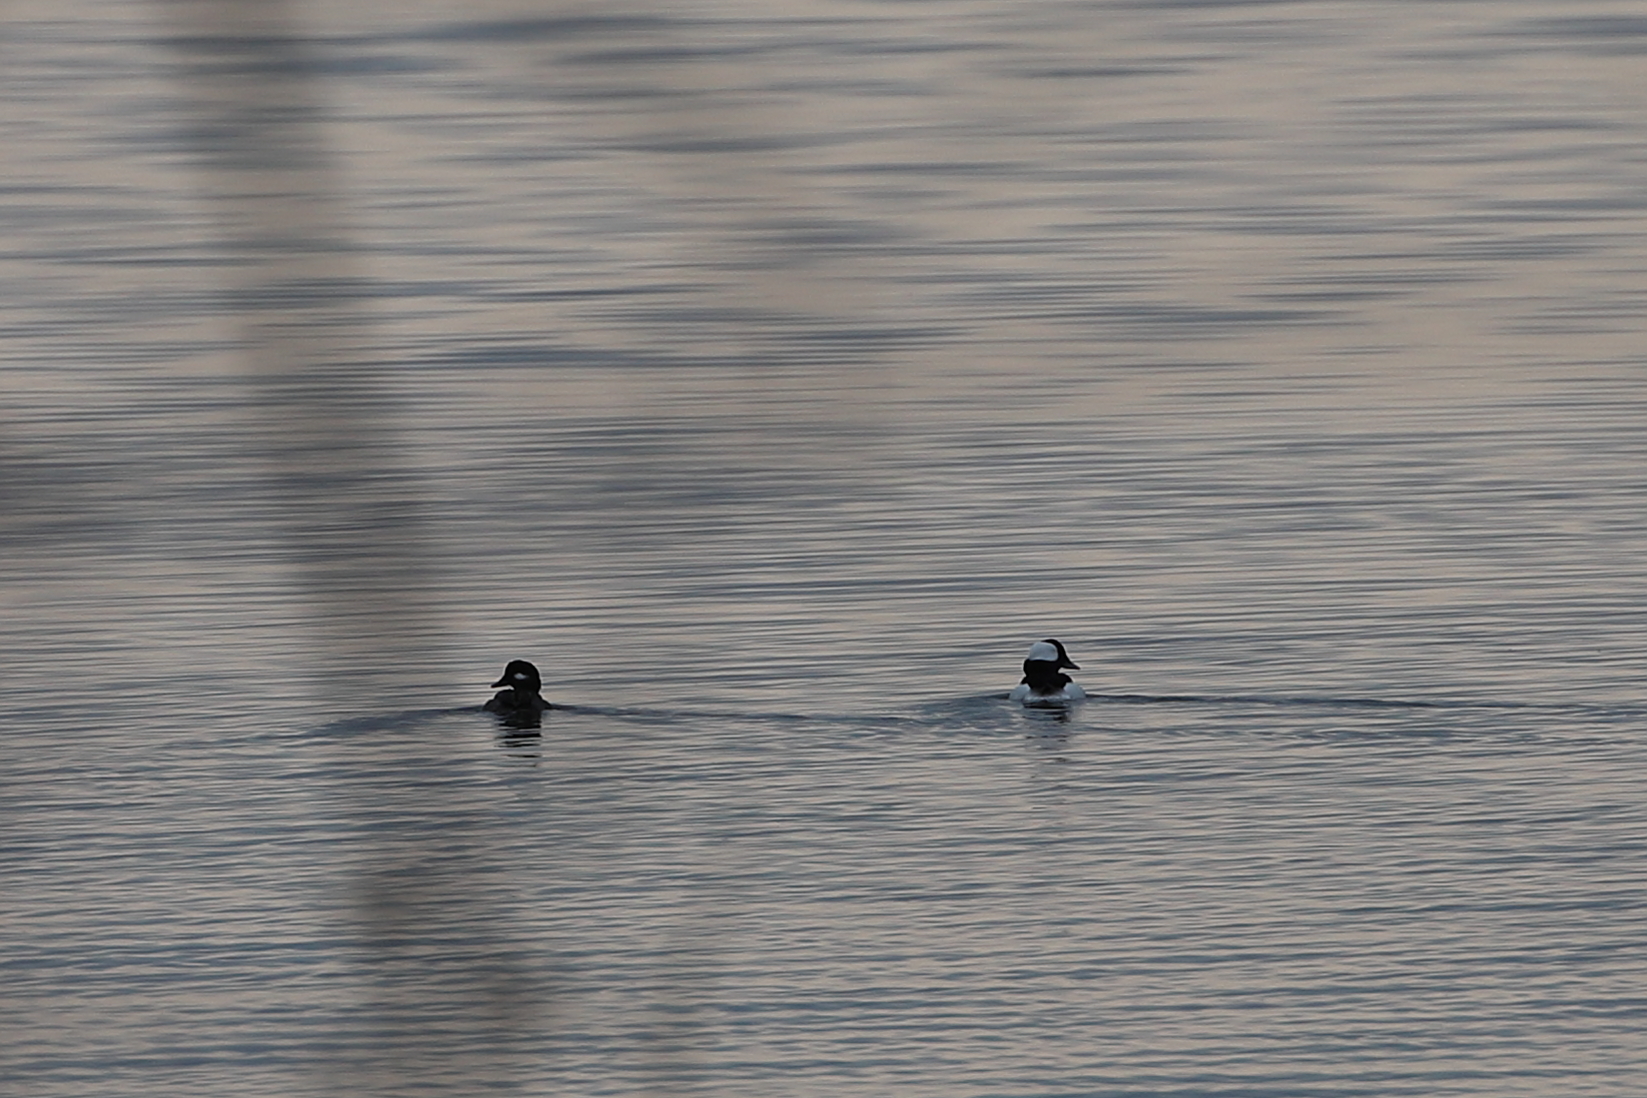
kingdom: Animalia
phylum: Chordata
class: Aves
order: Anseriformes
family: Anatidae
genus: Bucephala
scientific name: Bucephala albeola
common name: Bufflehead
